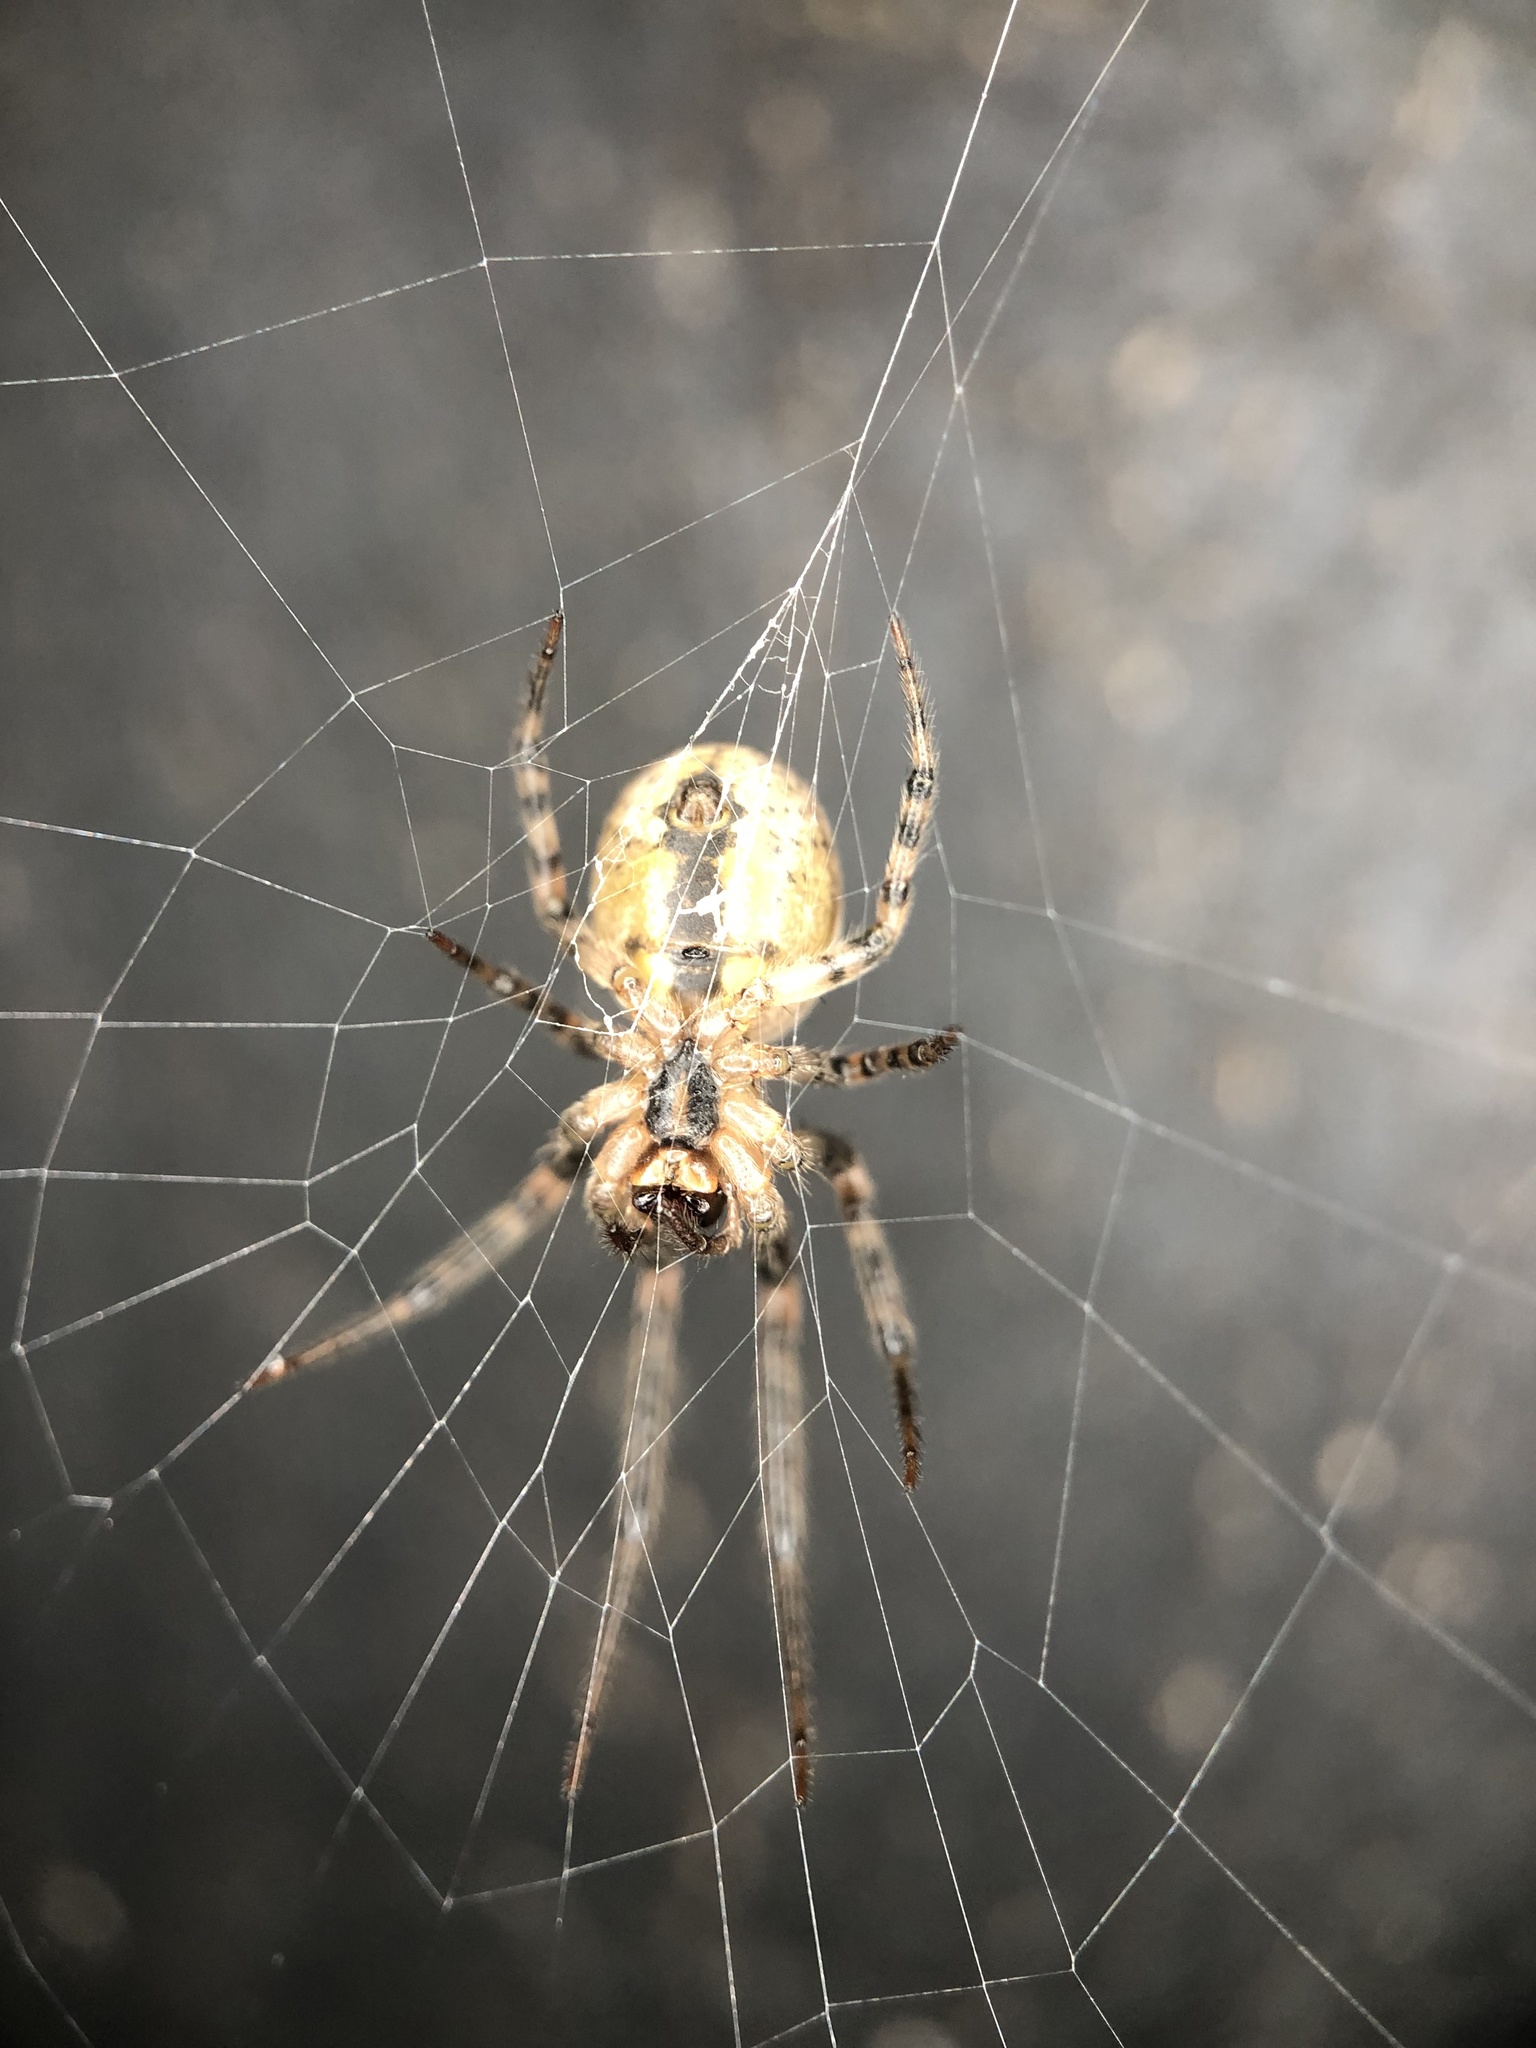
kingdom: Animalia
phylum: Arthropoda
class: Arachnida
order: Araneae
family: Araneidae
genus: Zygiella
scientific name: Zygiella x-notata
